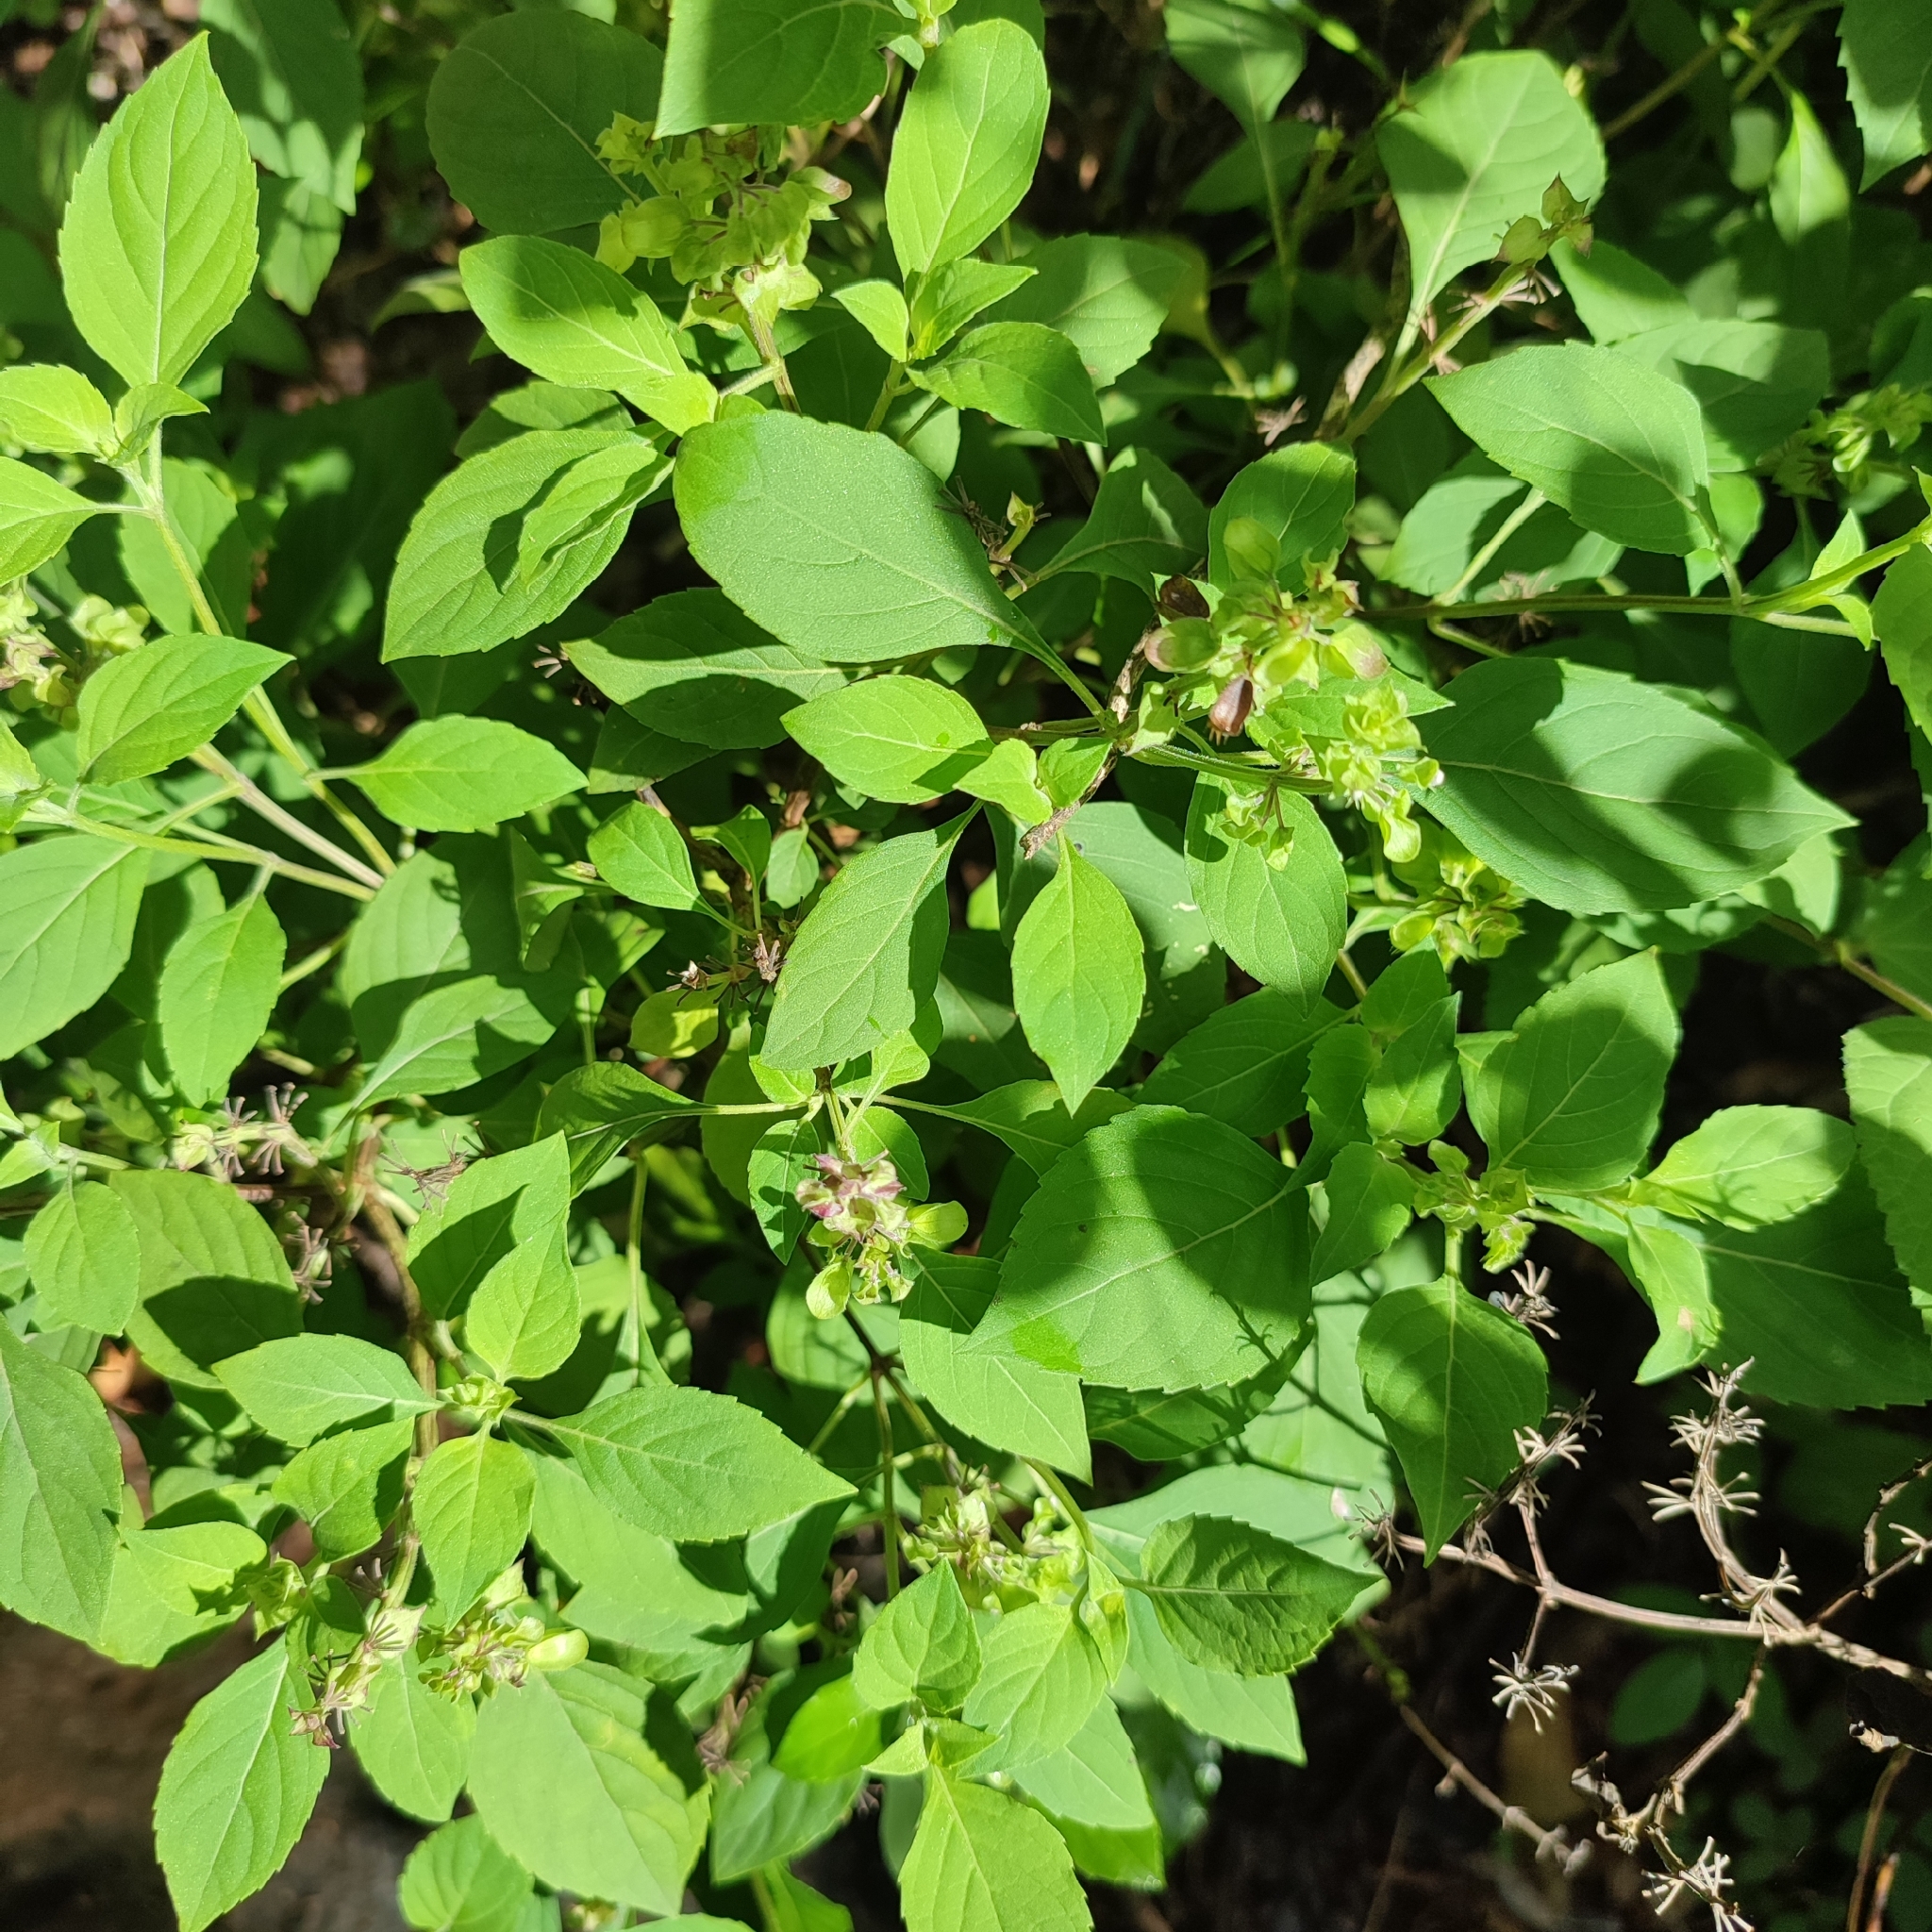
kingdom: Plantae
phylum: Tracheophyta
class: Magnoliopsida
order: Lamiales
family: Lamiaceae
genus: Ocimum
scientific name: Ocimum campechianum
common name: Mosquito basil
